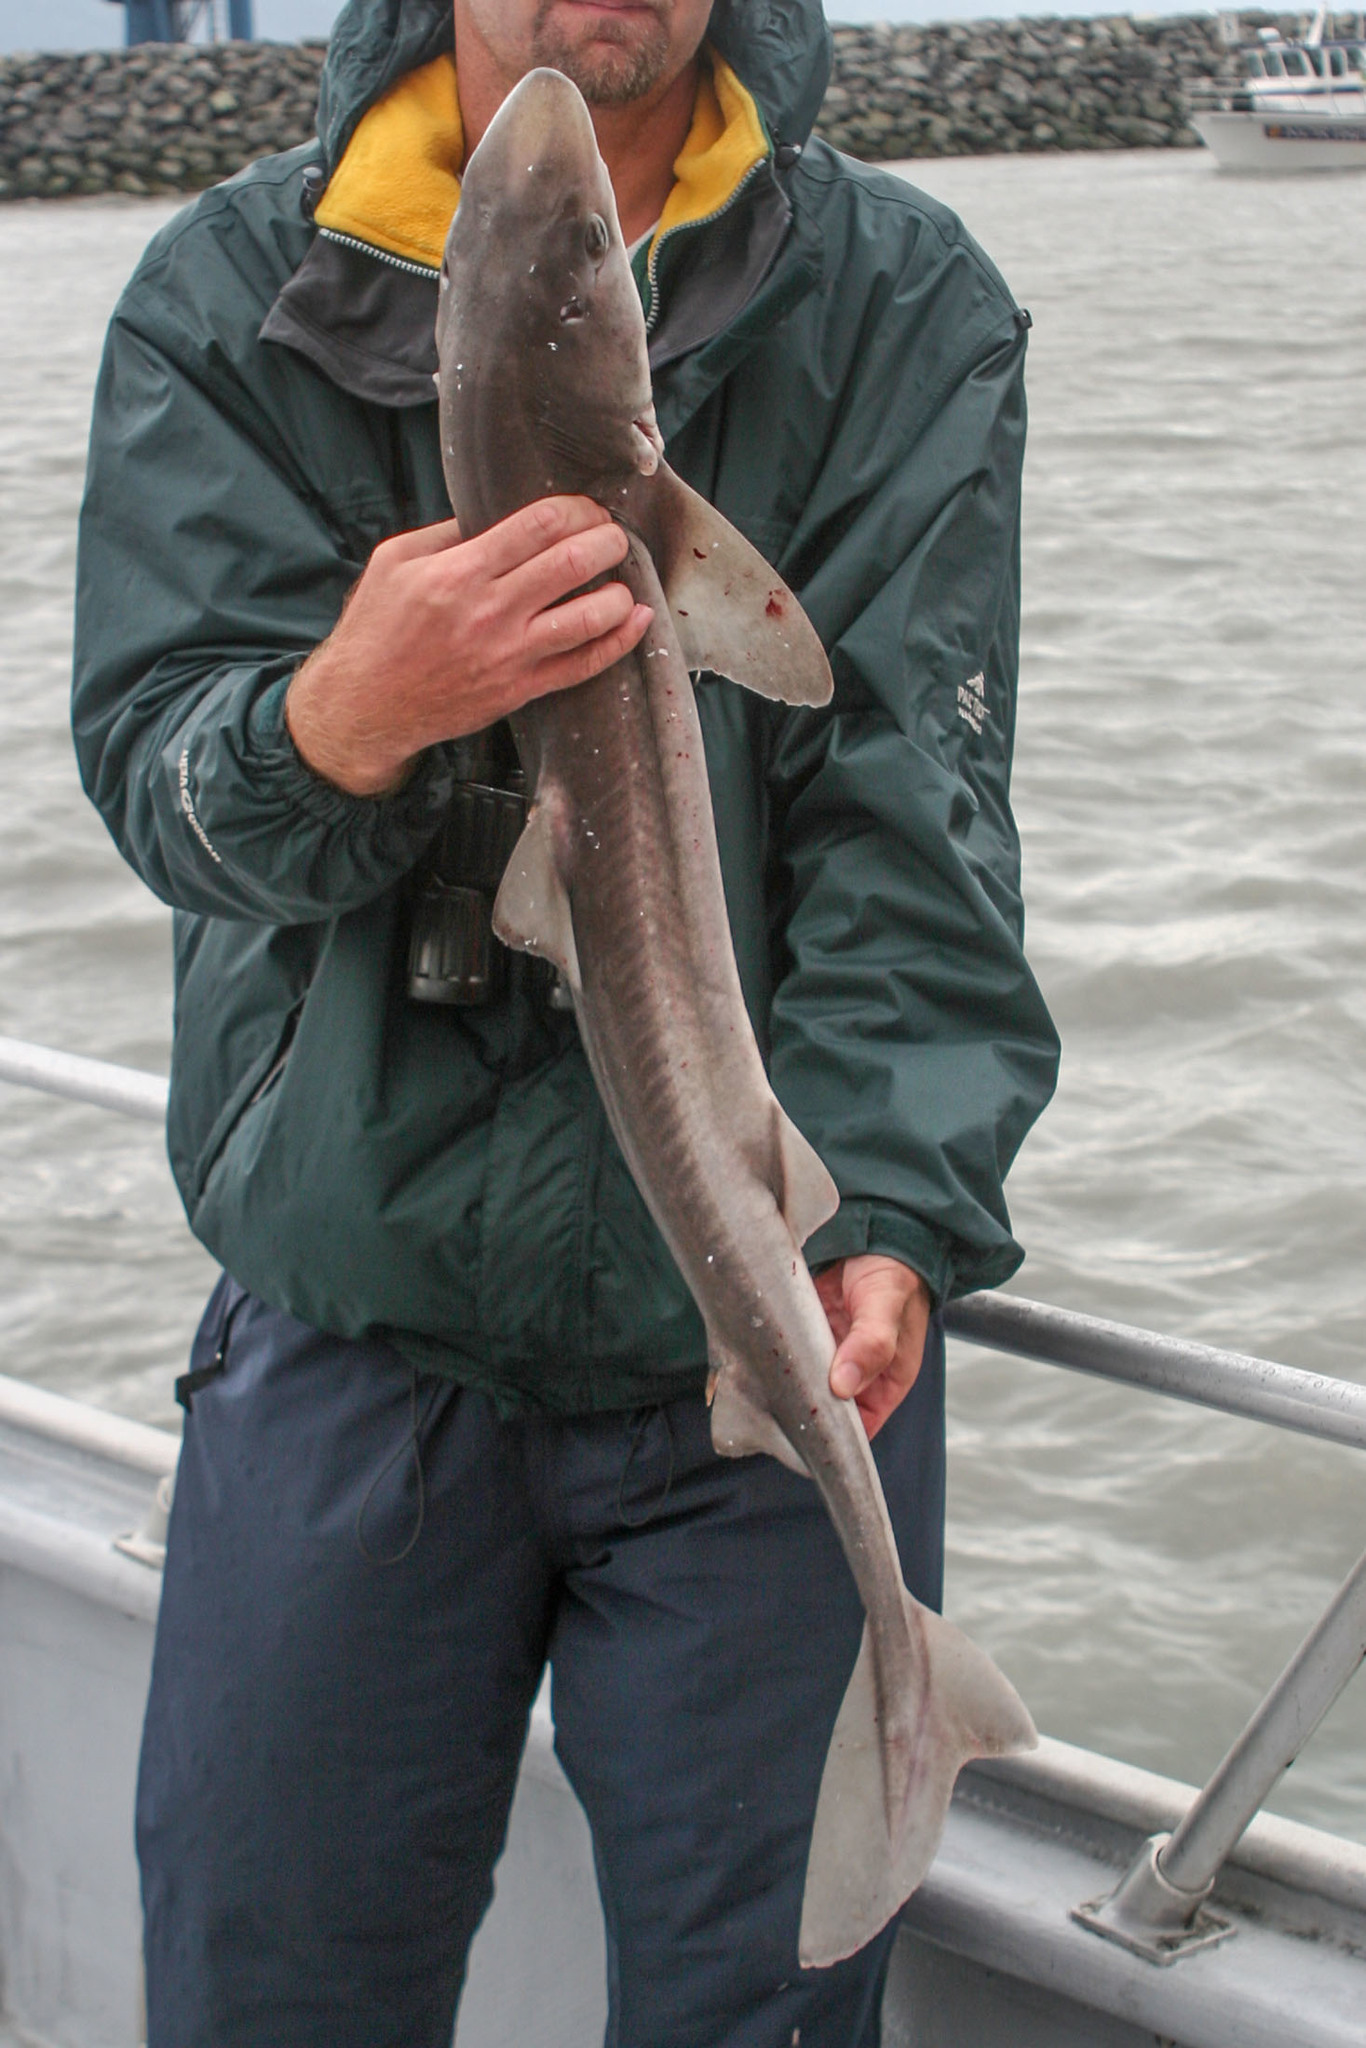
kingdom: Animalia
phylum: Chordata
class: Elasmobranchii
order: Squaliformes
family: Squalidae
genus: Squalus
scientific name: Squalus suckleyi
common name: Spiny dogfish
